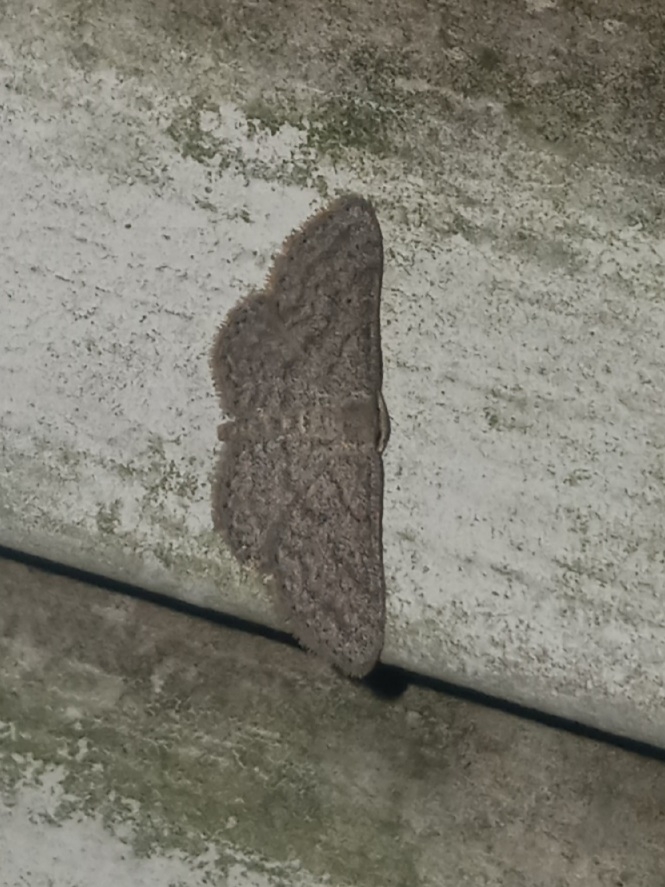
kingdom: Animalia
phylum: Arthropoda
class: Insecta
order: Lepidoptera
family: Geometridae
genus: Lobocleta
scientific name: Lobocleta ossularia
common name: Drab brown wave
